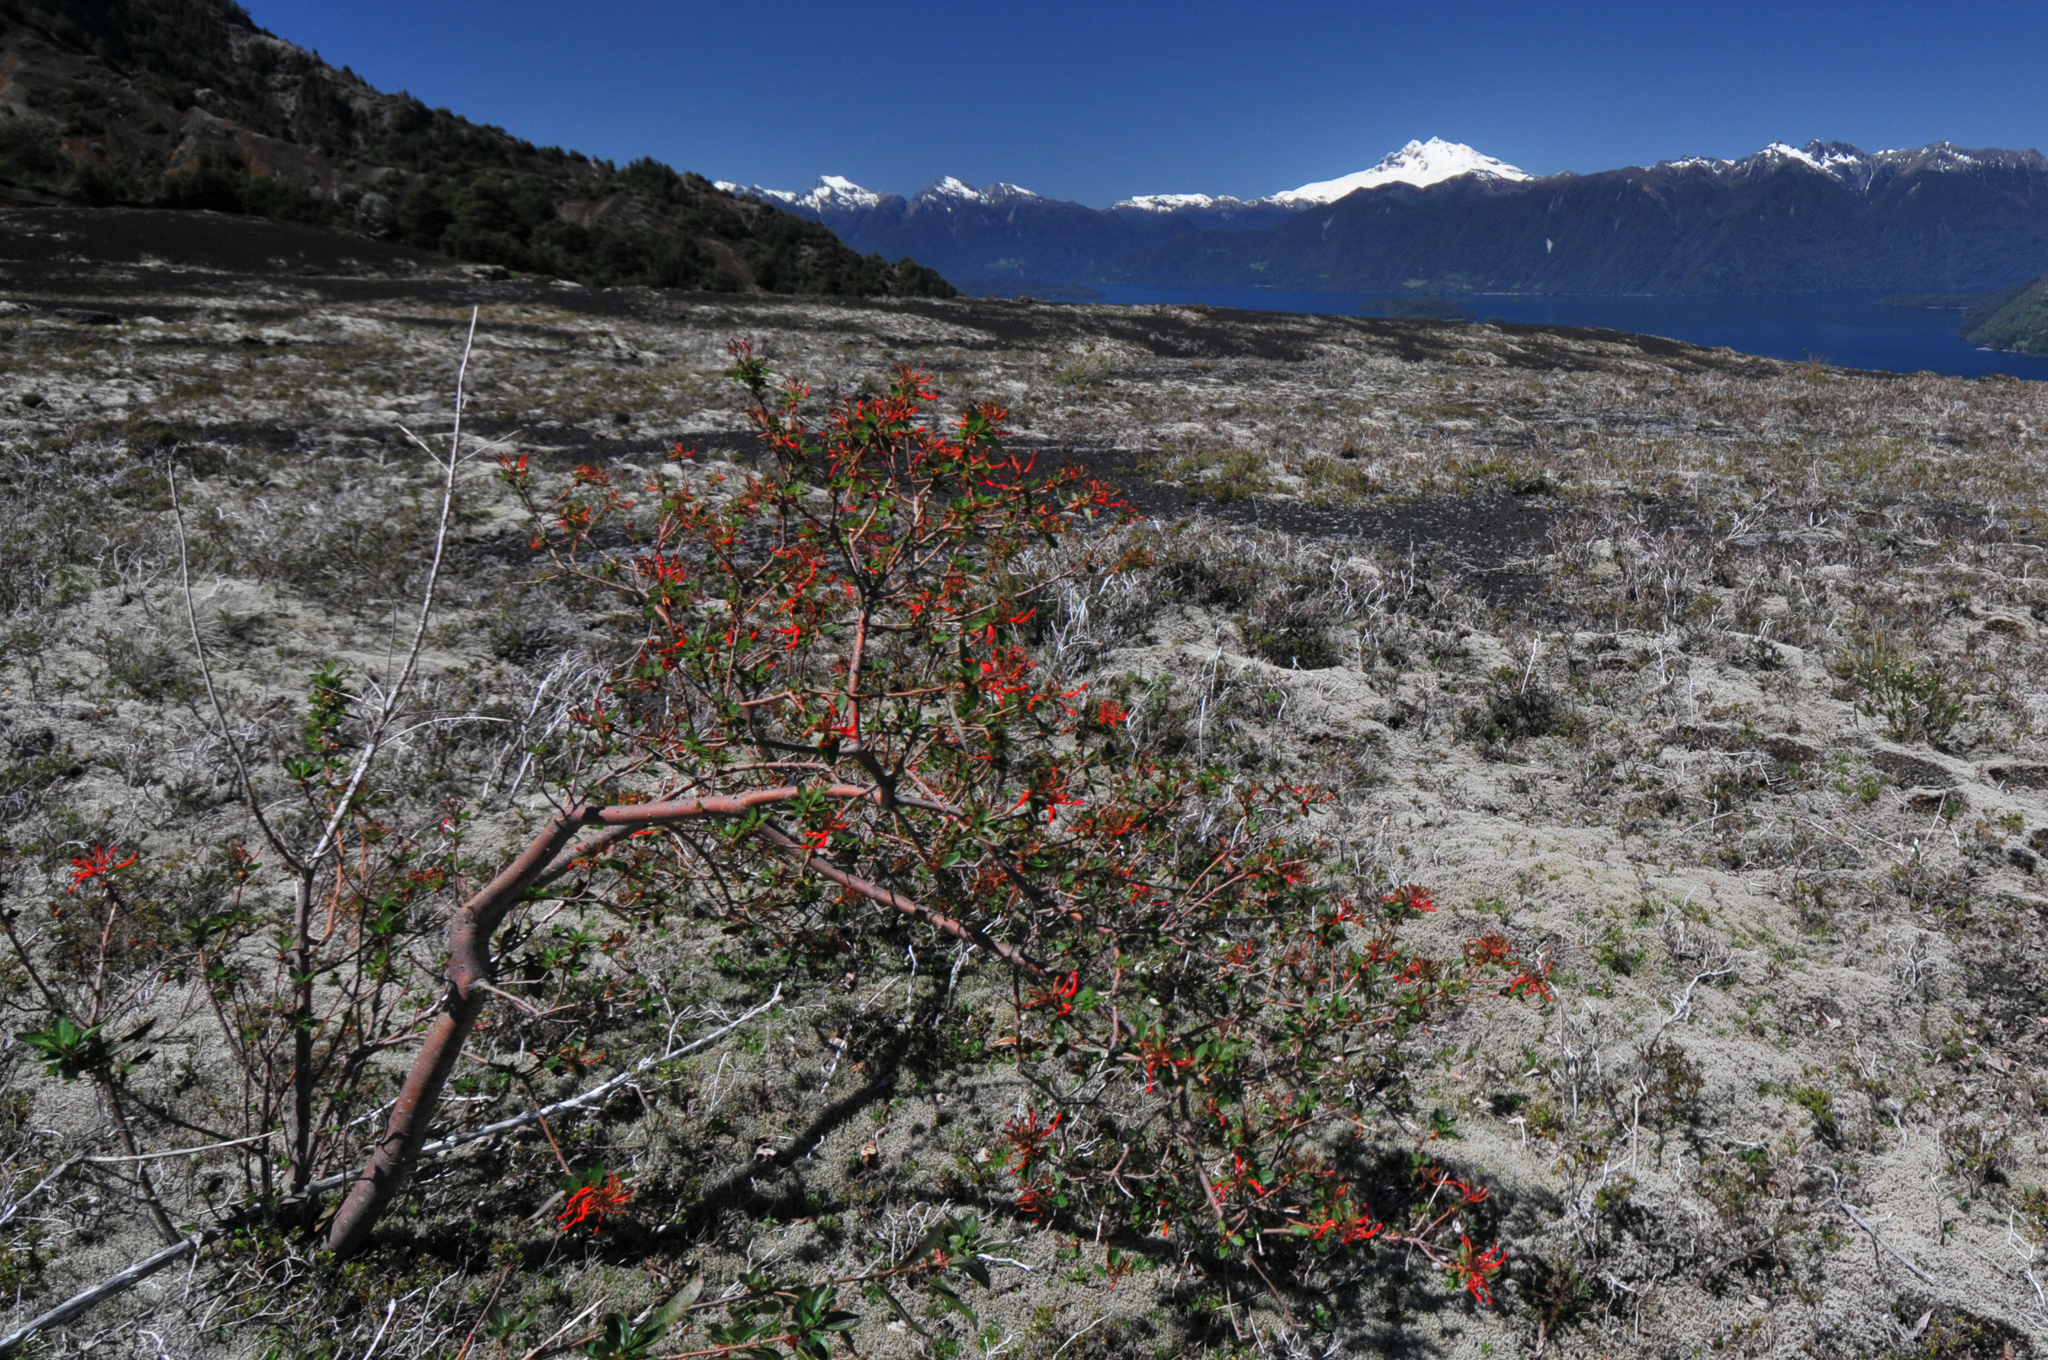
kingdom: Plantae
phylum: Tracheophyta
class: Magnoliopsida
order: Proteales
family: Proteaceae
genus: Embothrium
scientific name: Embothrium coccineum
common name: Chilean firebush
